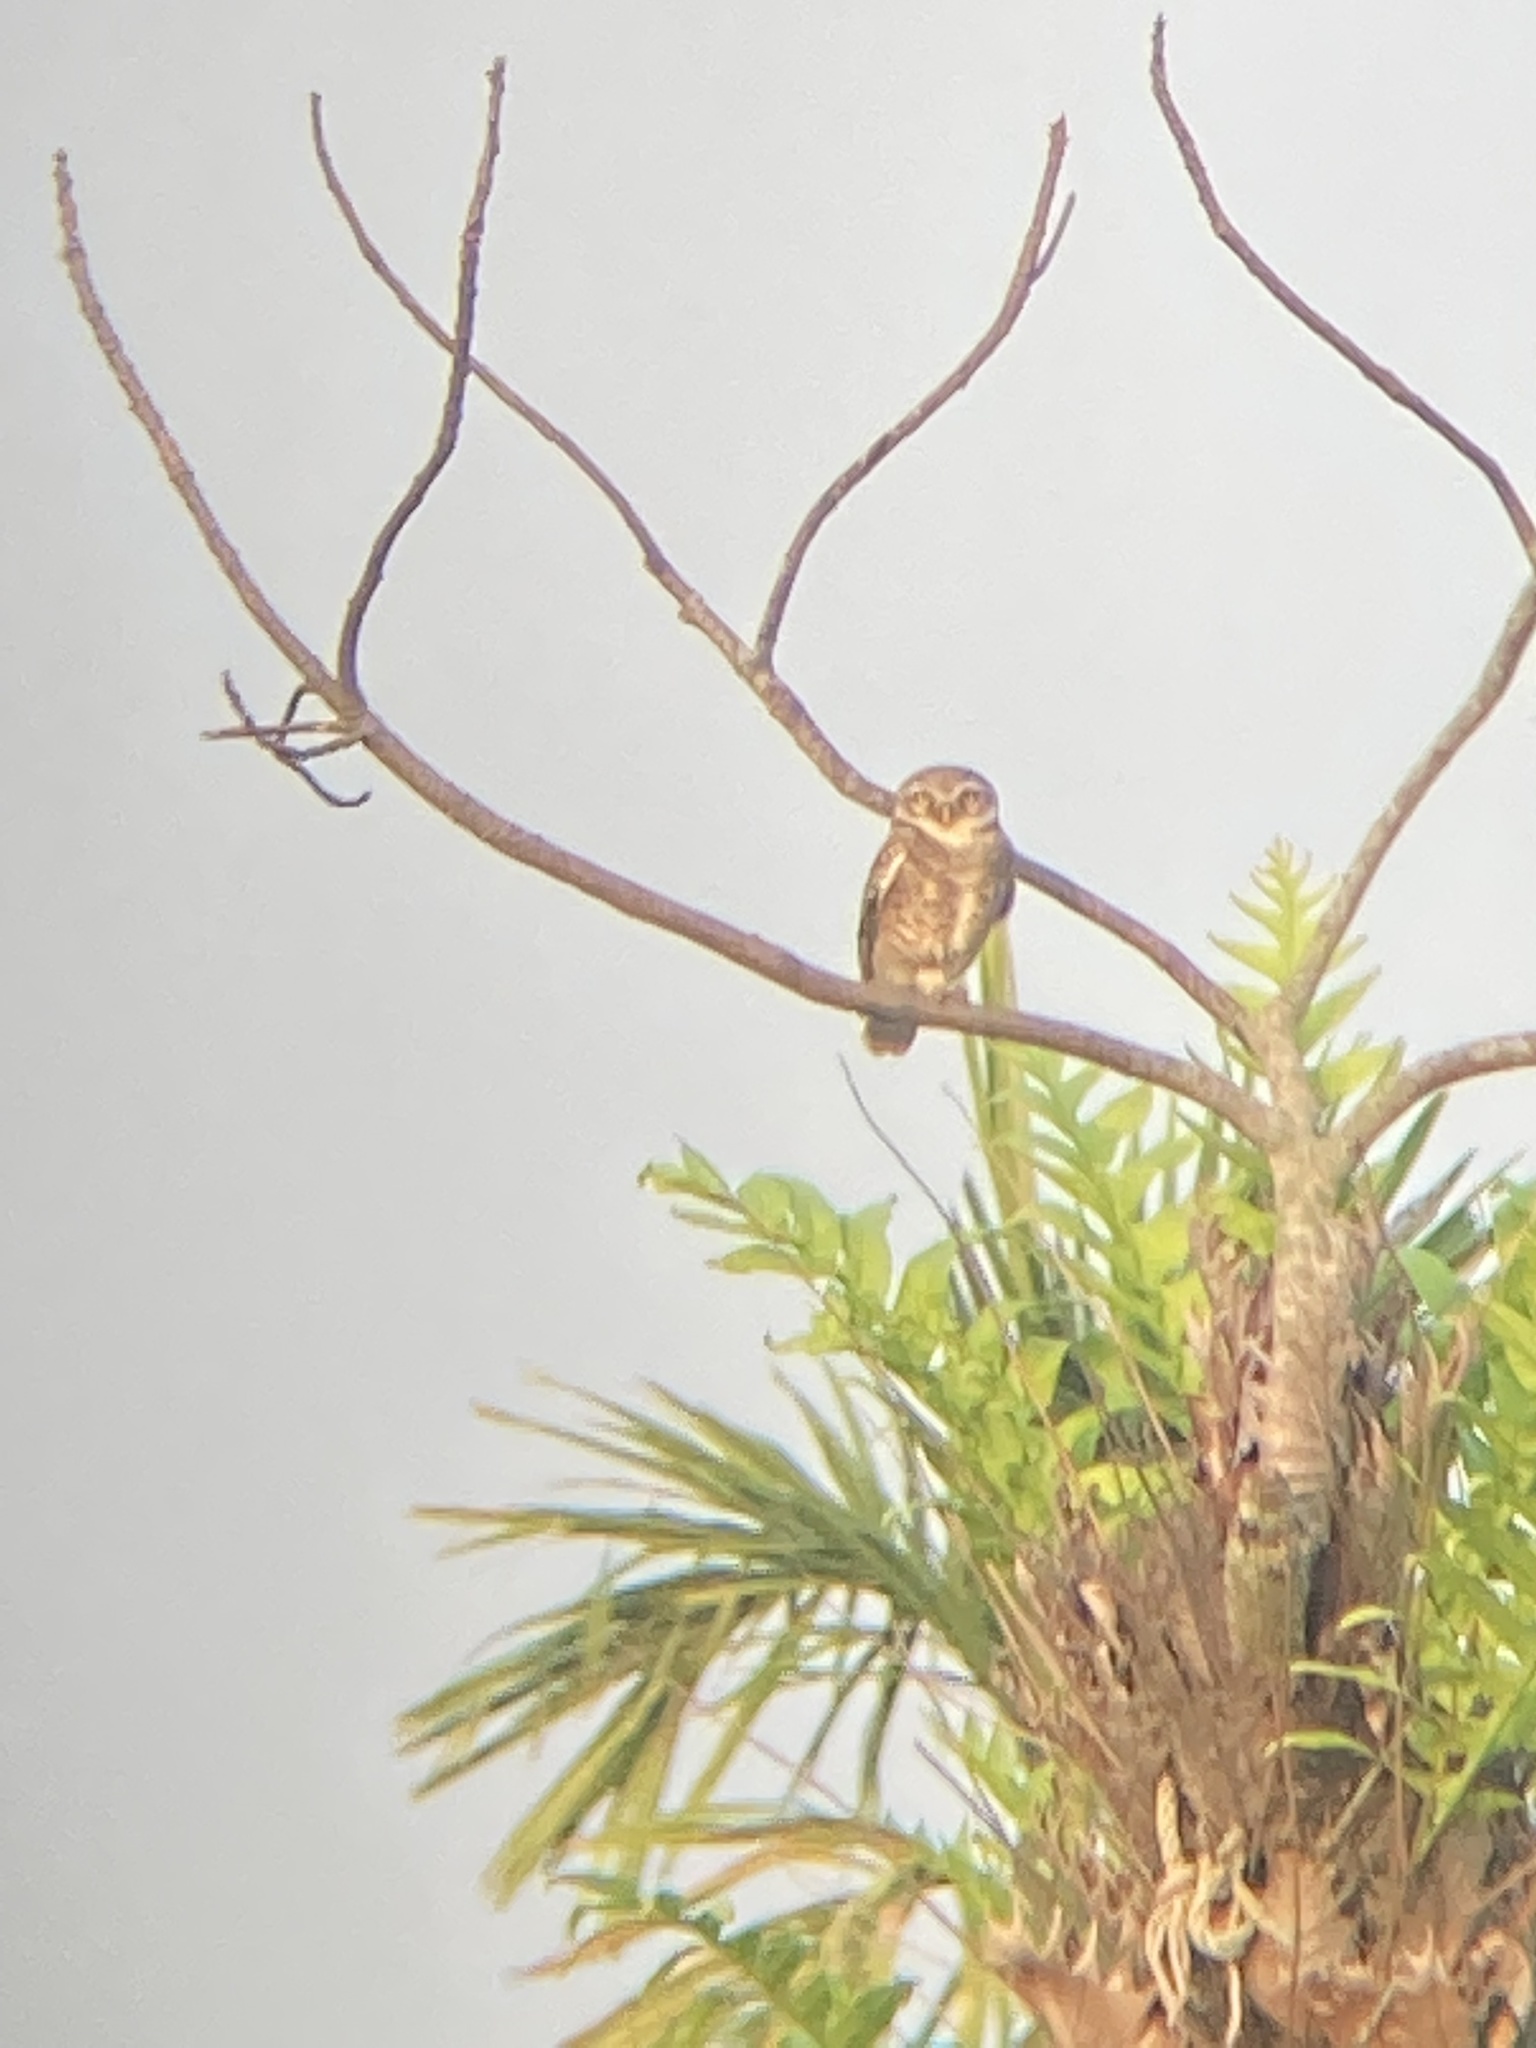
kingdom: Animalia
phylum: Chordata
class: Aves
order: Strigiformes
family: Strigidae
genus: Athene
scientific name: Athene brama
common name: Spotted owlet
